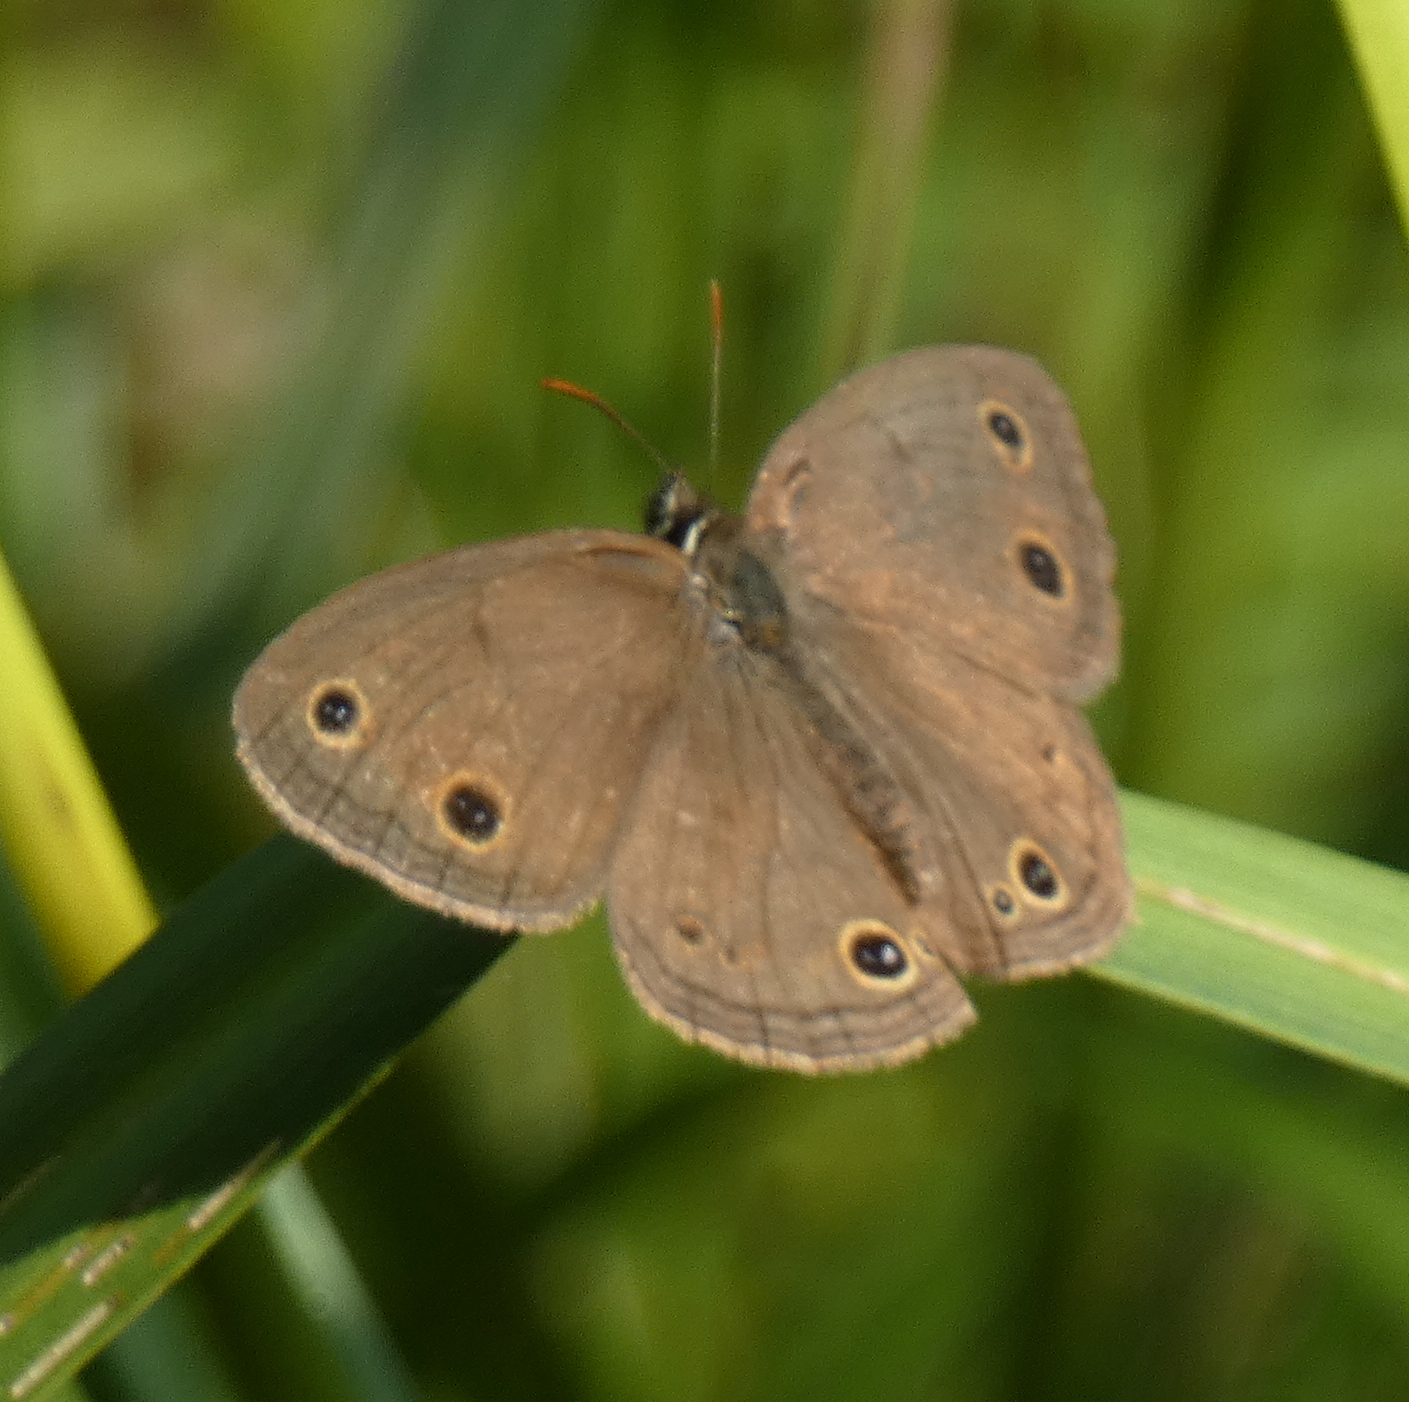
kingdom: Animalia
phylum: Arthropoda
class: Insecta
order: Lepidoptera
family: Nymphalidae
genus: Euptychia
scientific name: Euptychia cymela
